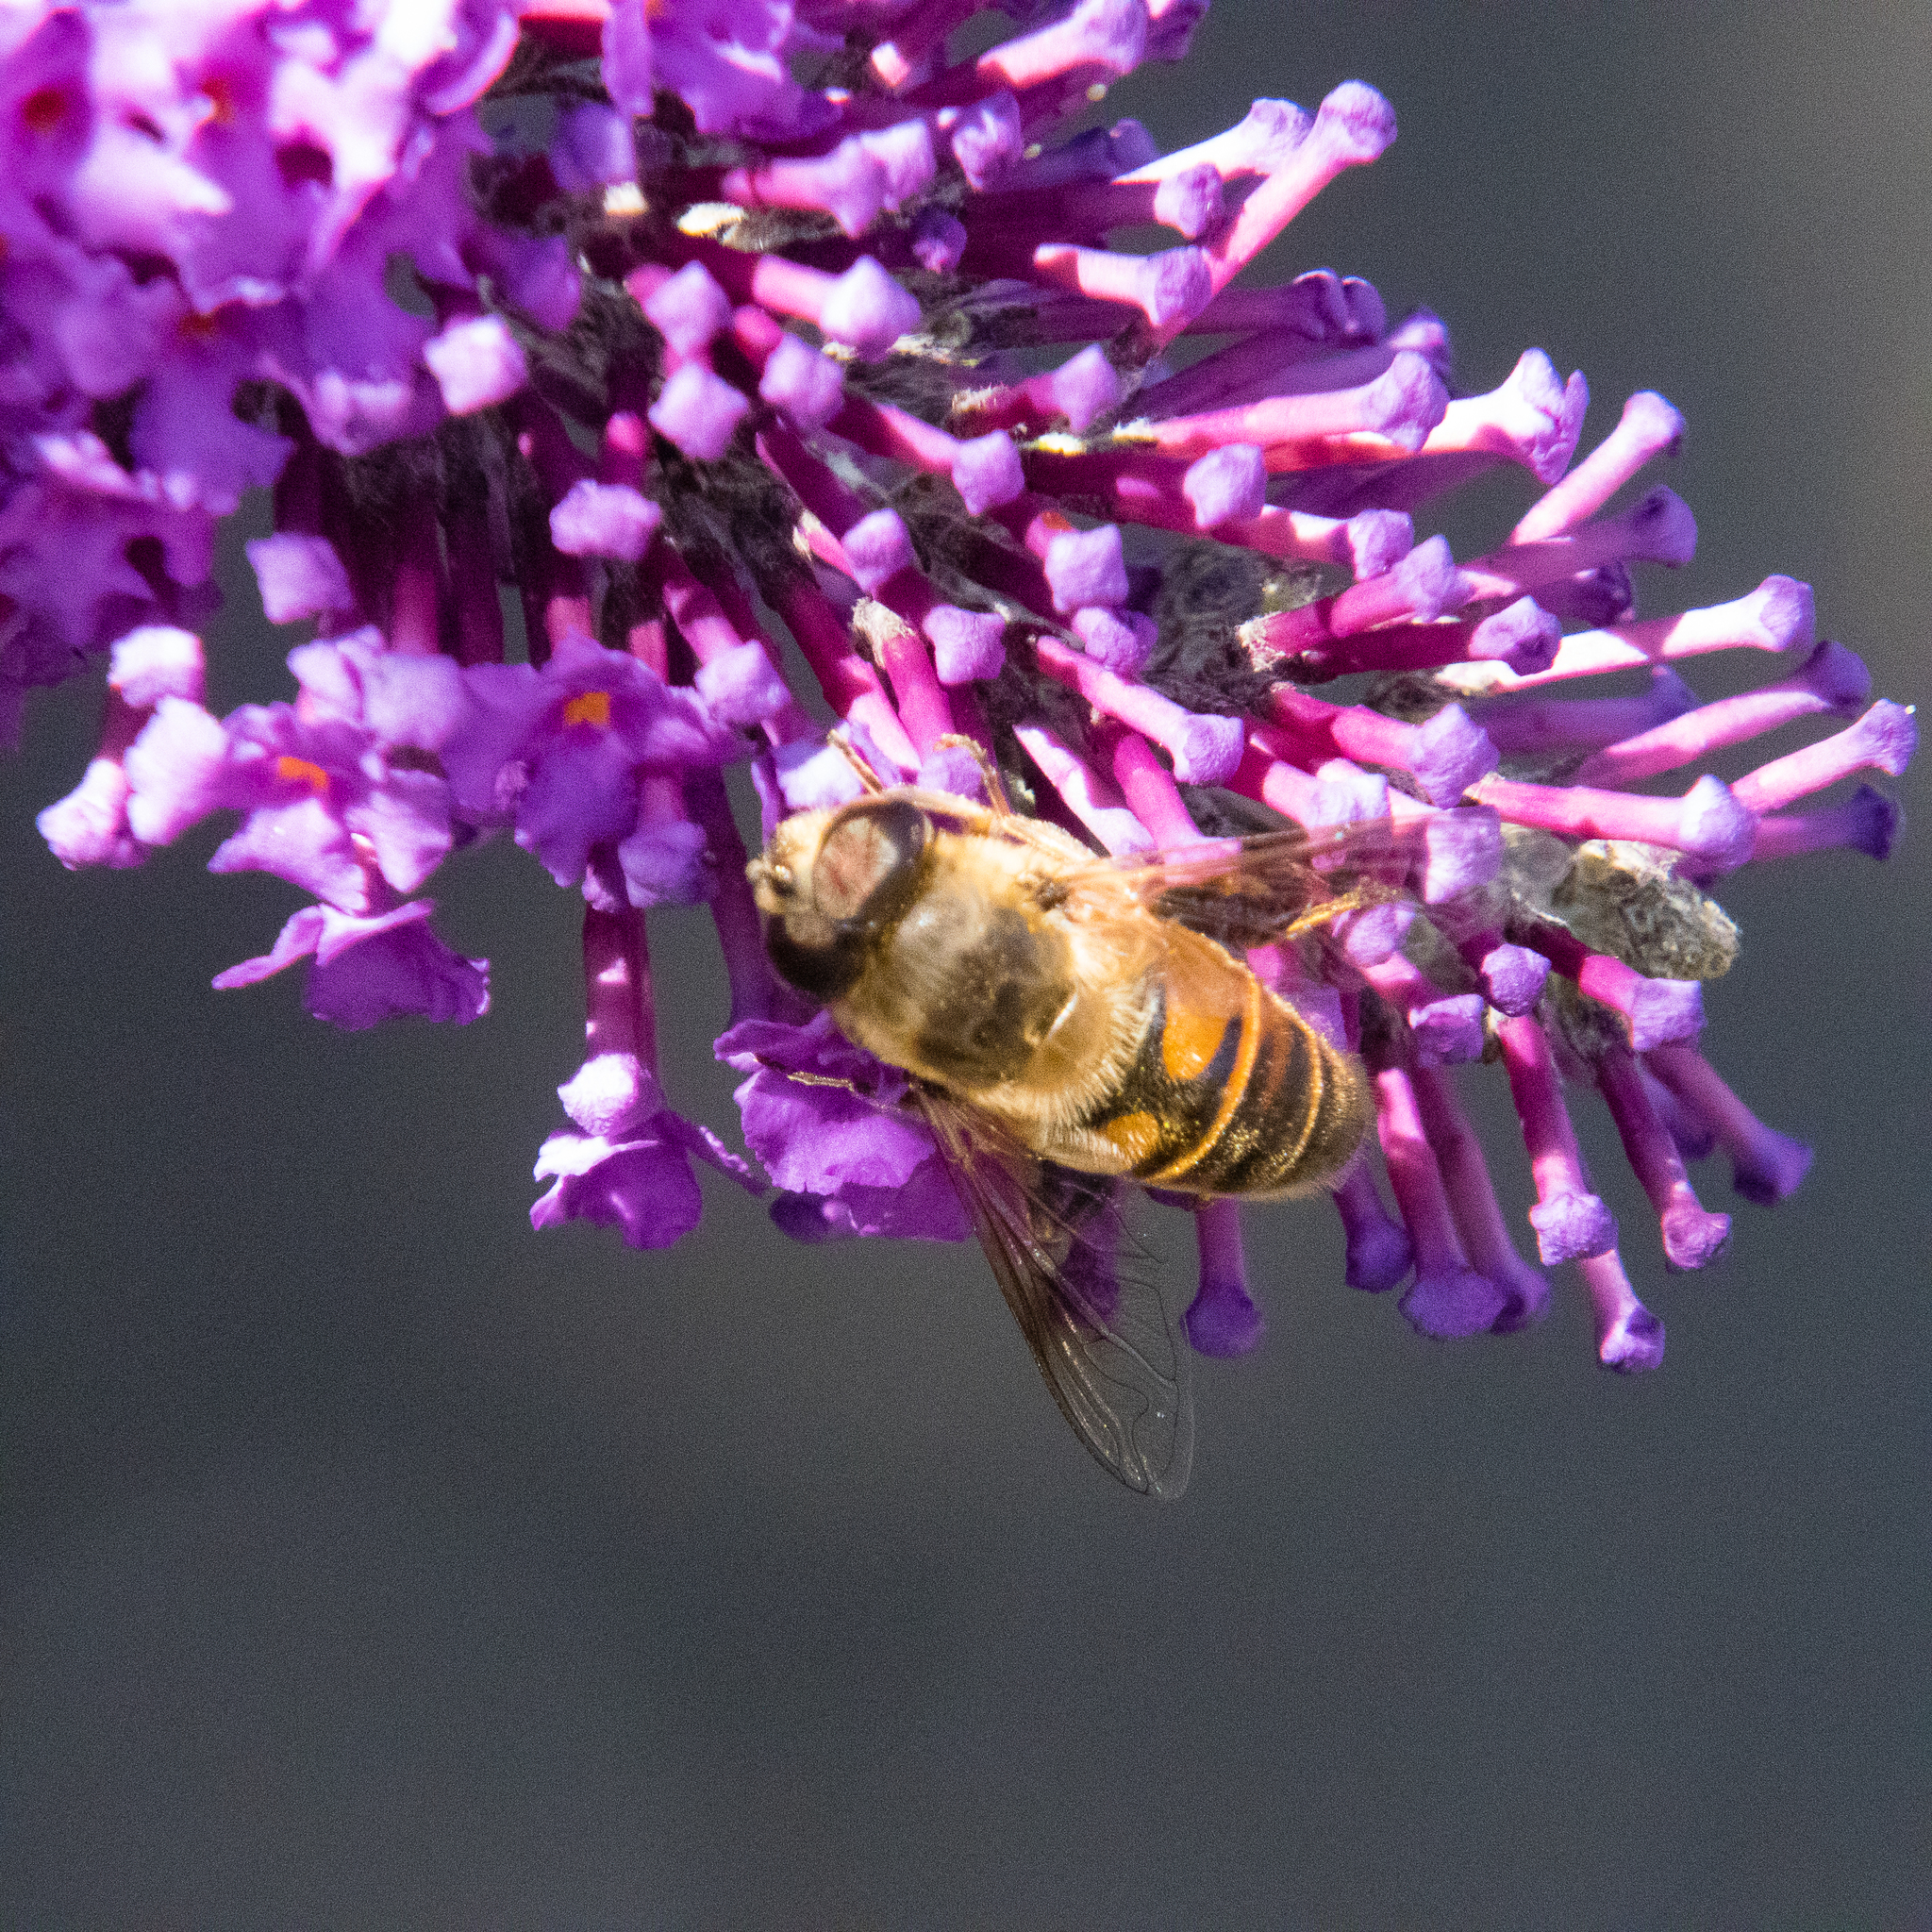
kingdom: Animalia
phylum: Arthropoda
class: Insecta
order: Diptera
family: Syrphidae
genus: Eristalis
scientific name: Eristalis tenax
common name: Drone fly
